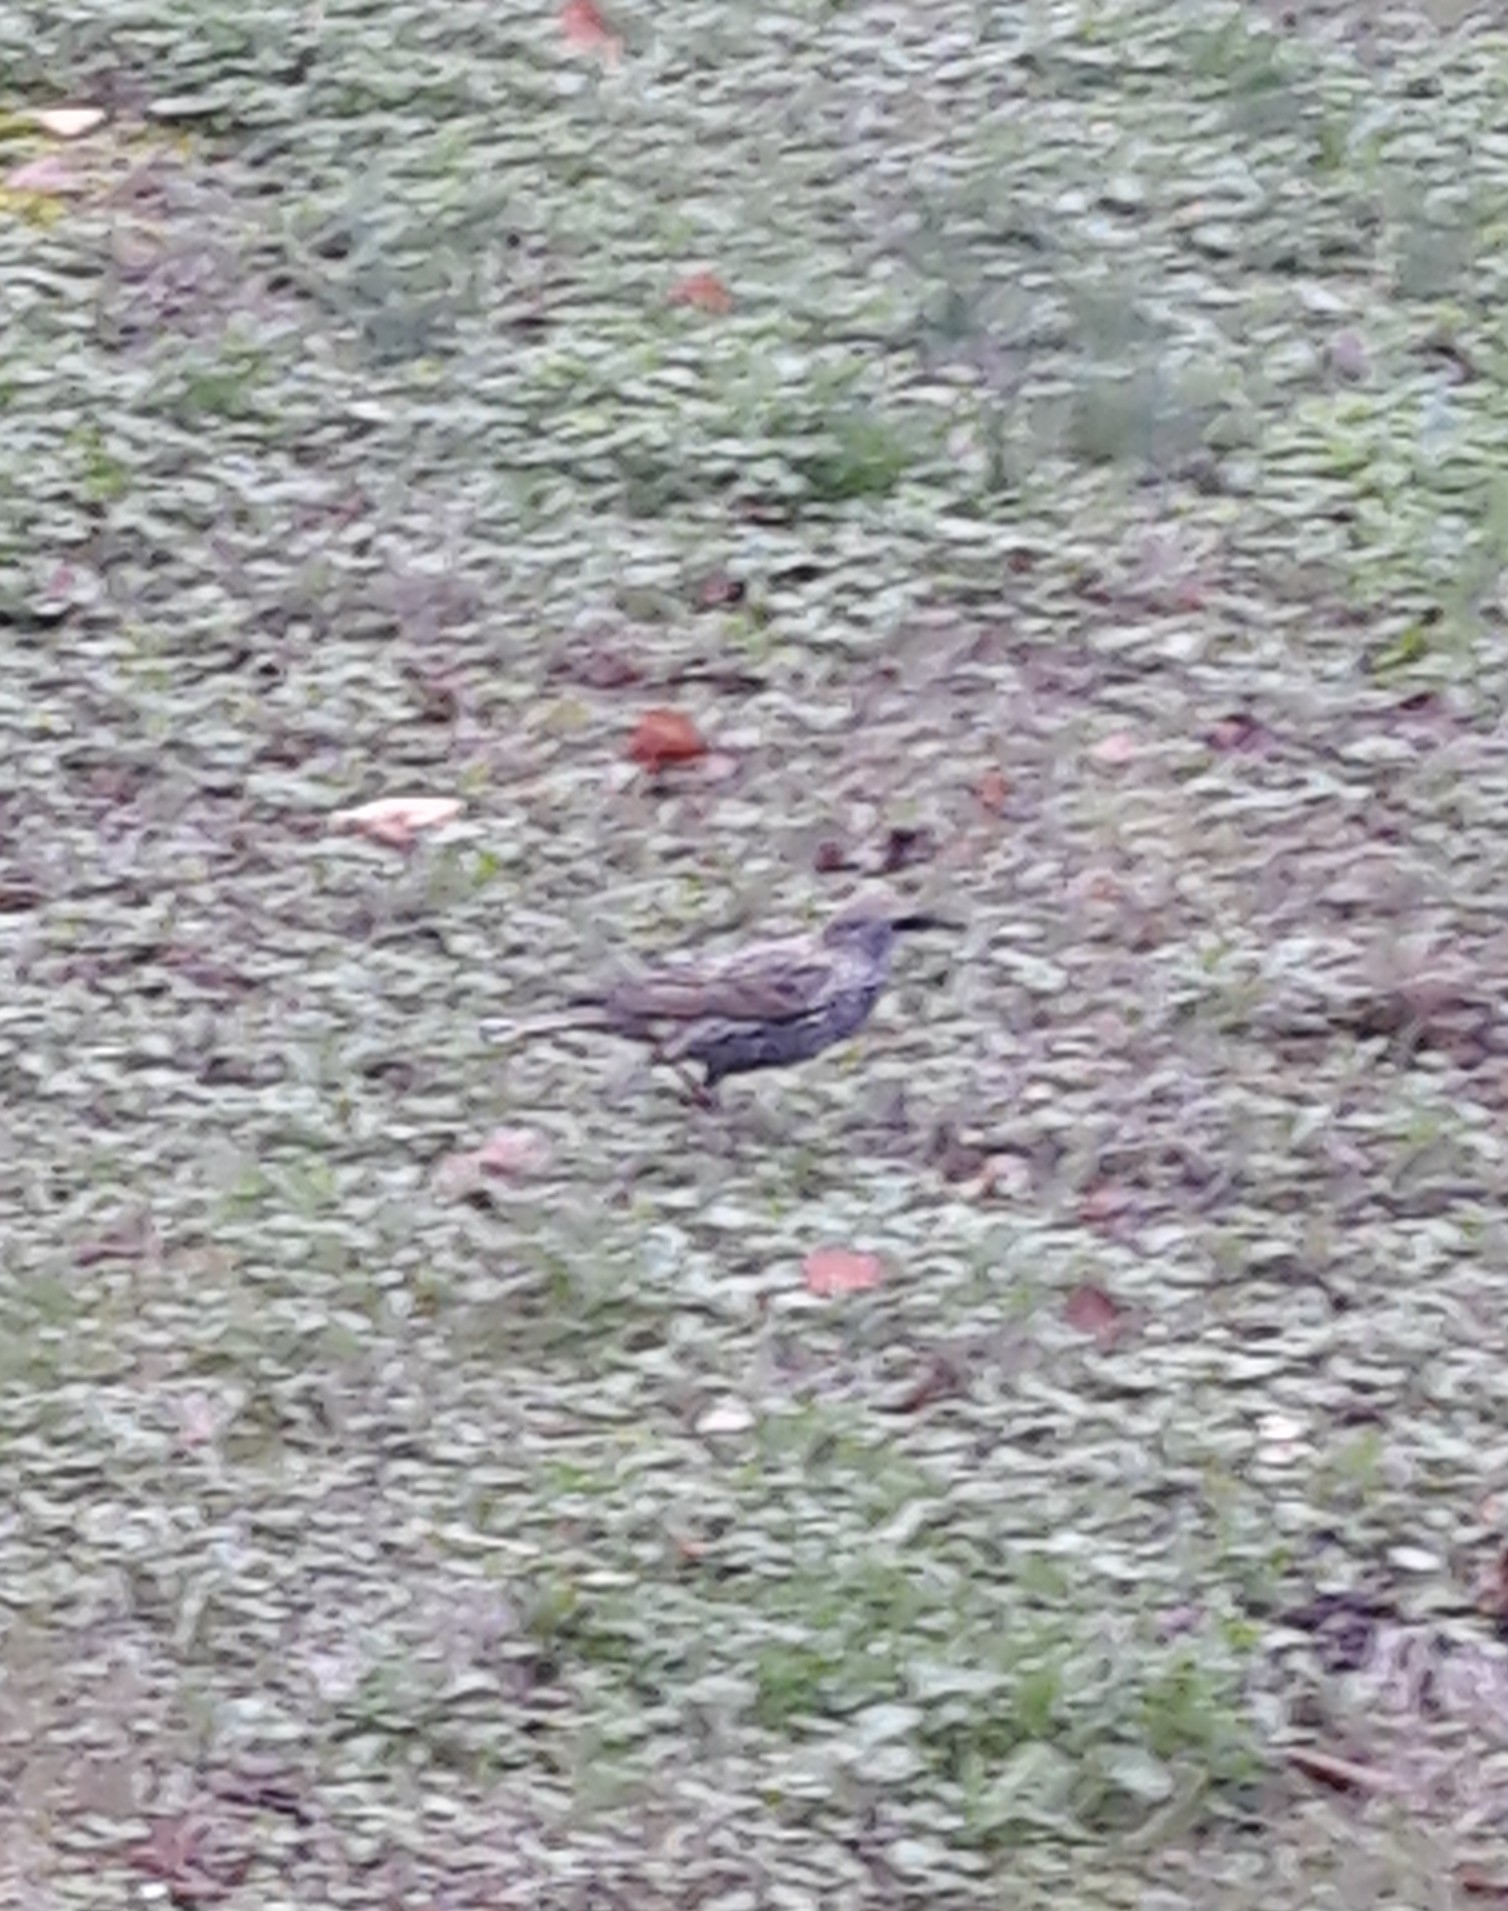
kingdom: Animalia
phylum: Chordata
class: Aves
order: Passeriformes
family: Sturnidae
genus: Sturnus
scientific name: Sturnus vulgaris
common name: Common starling
